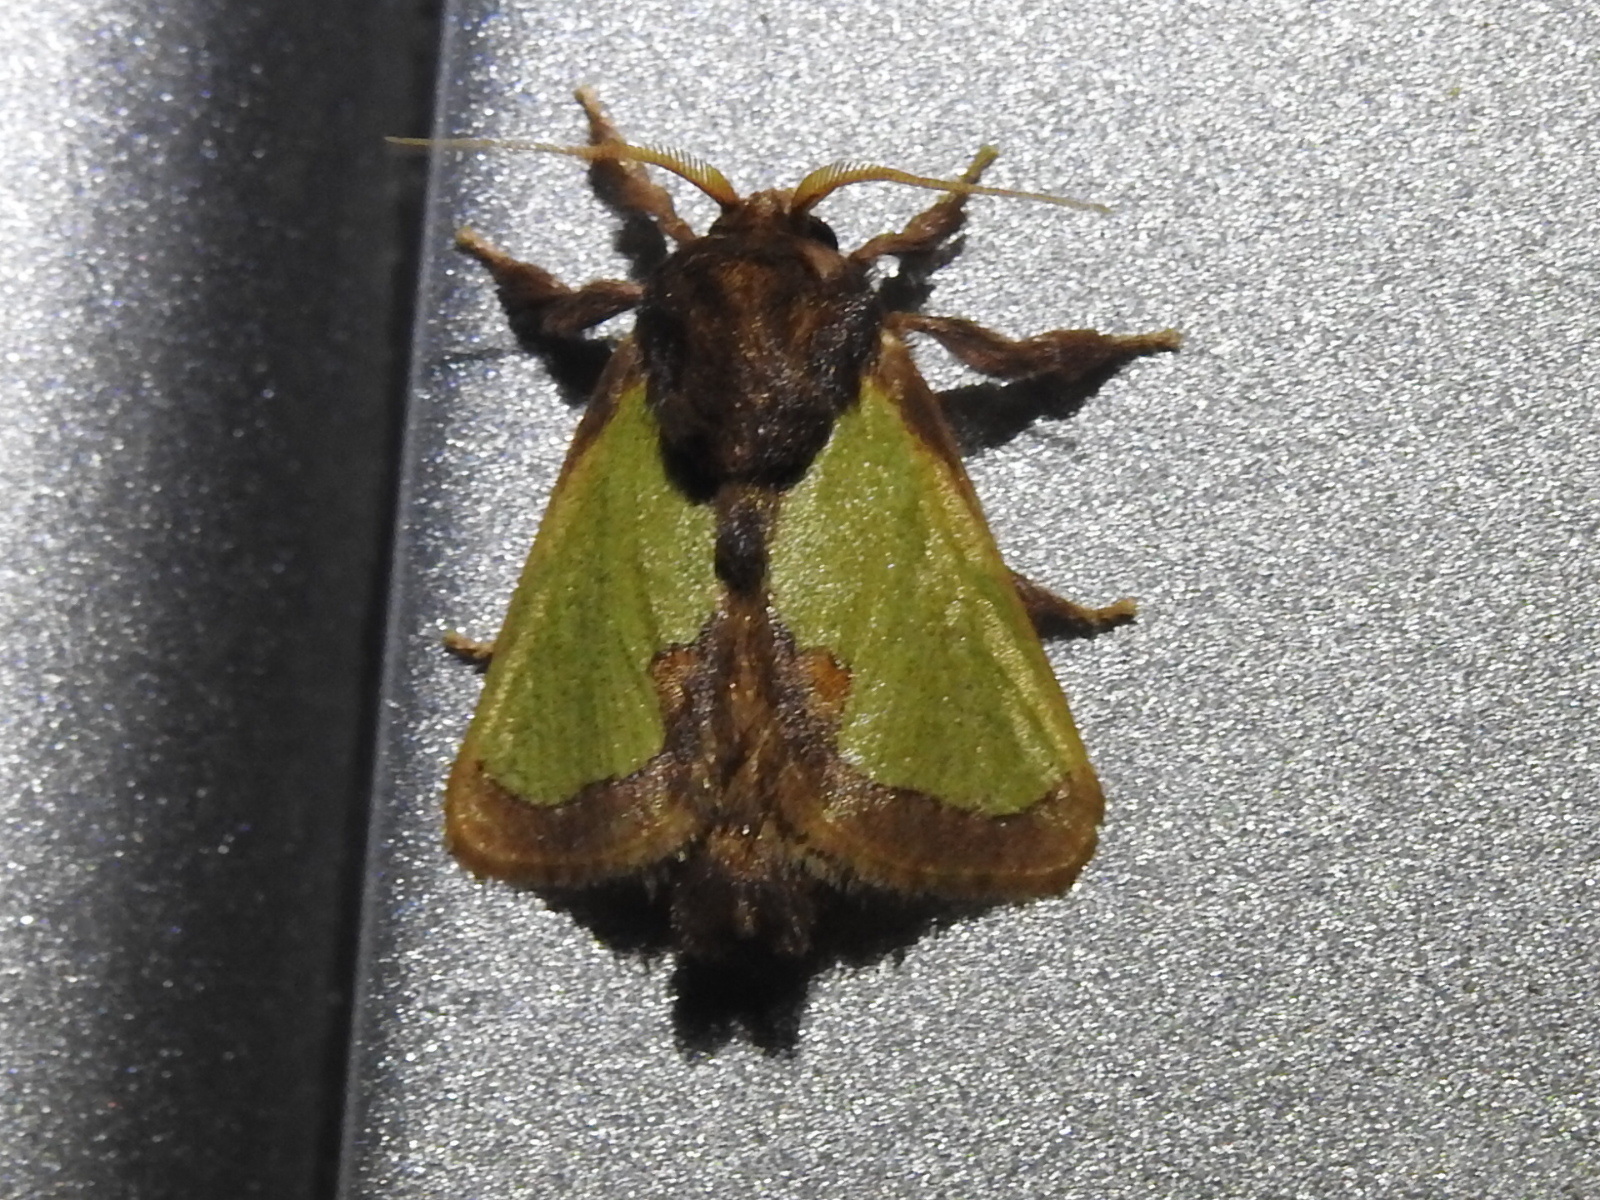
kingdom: Animalia
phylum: Arthropoda
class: Insecta
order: Lepidoptera
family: Limacodidae
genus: Euclea
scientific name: Euclea incisa
